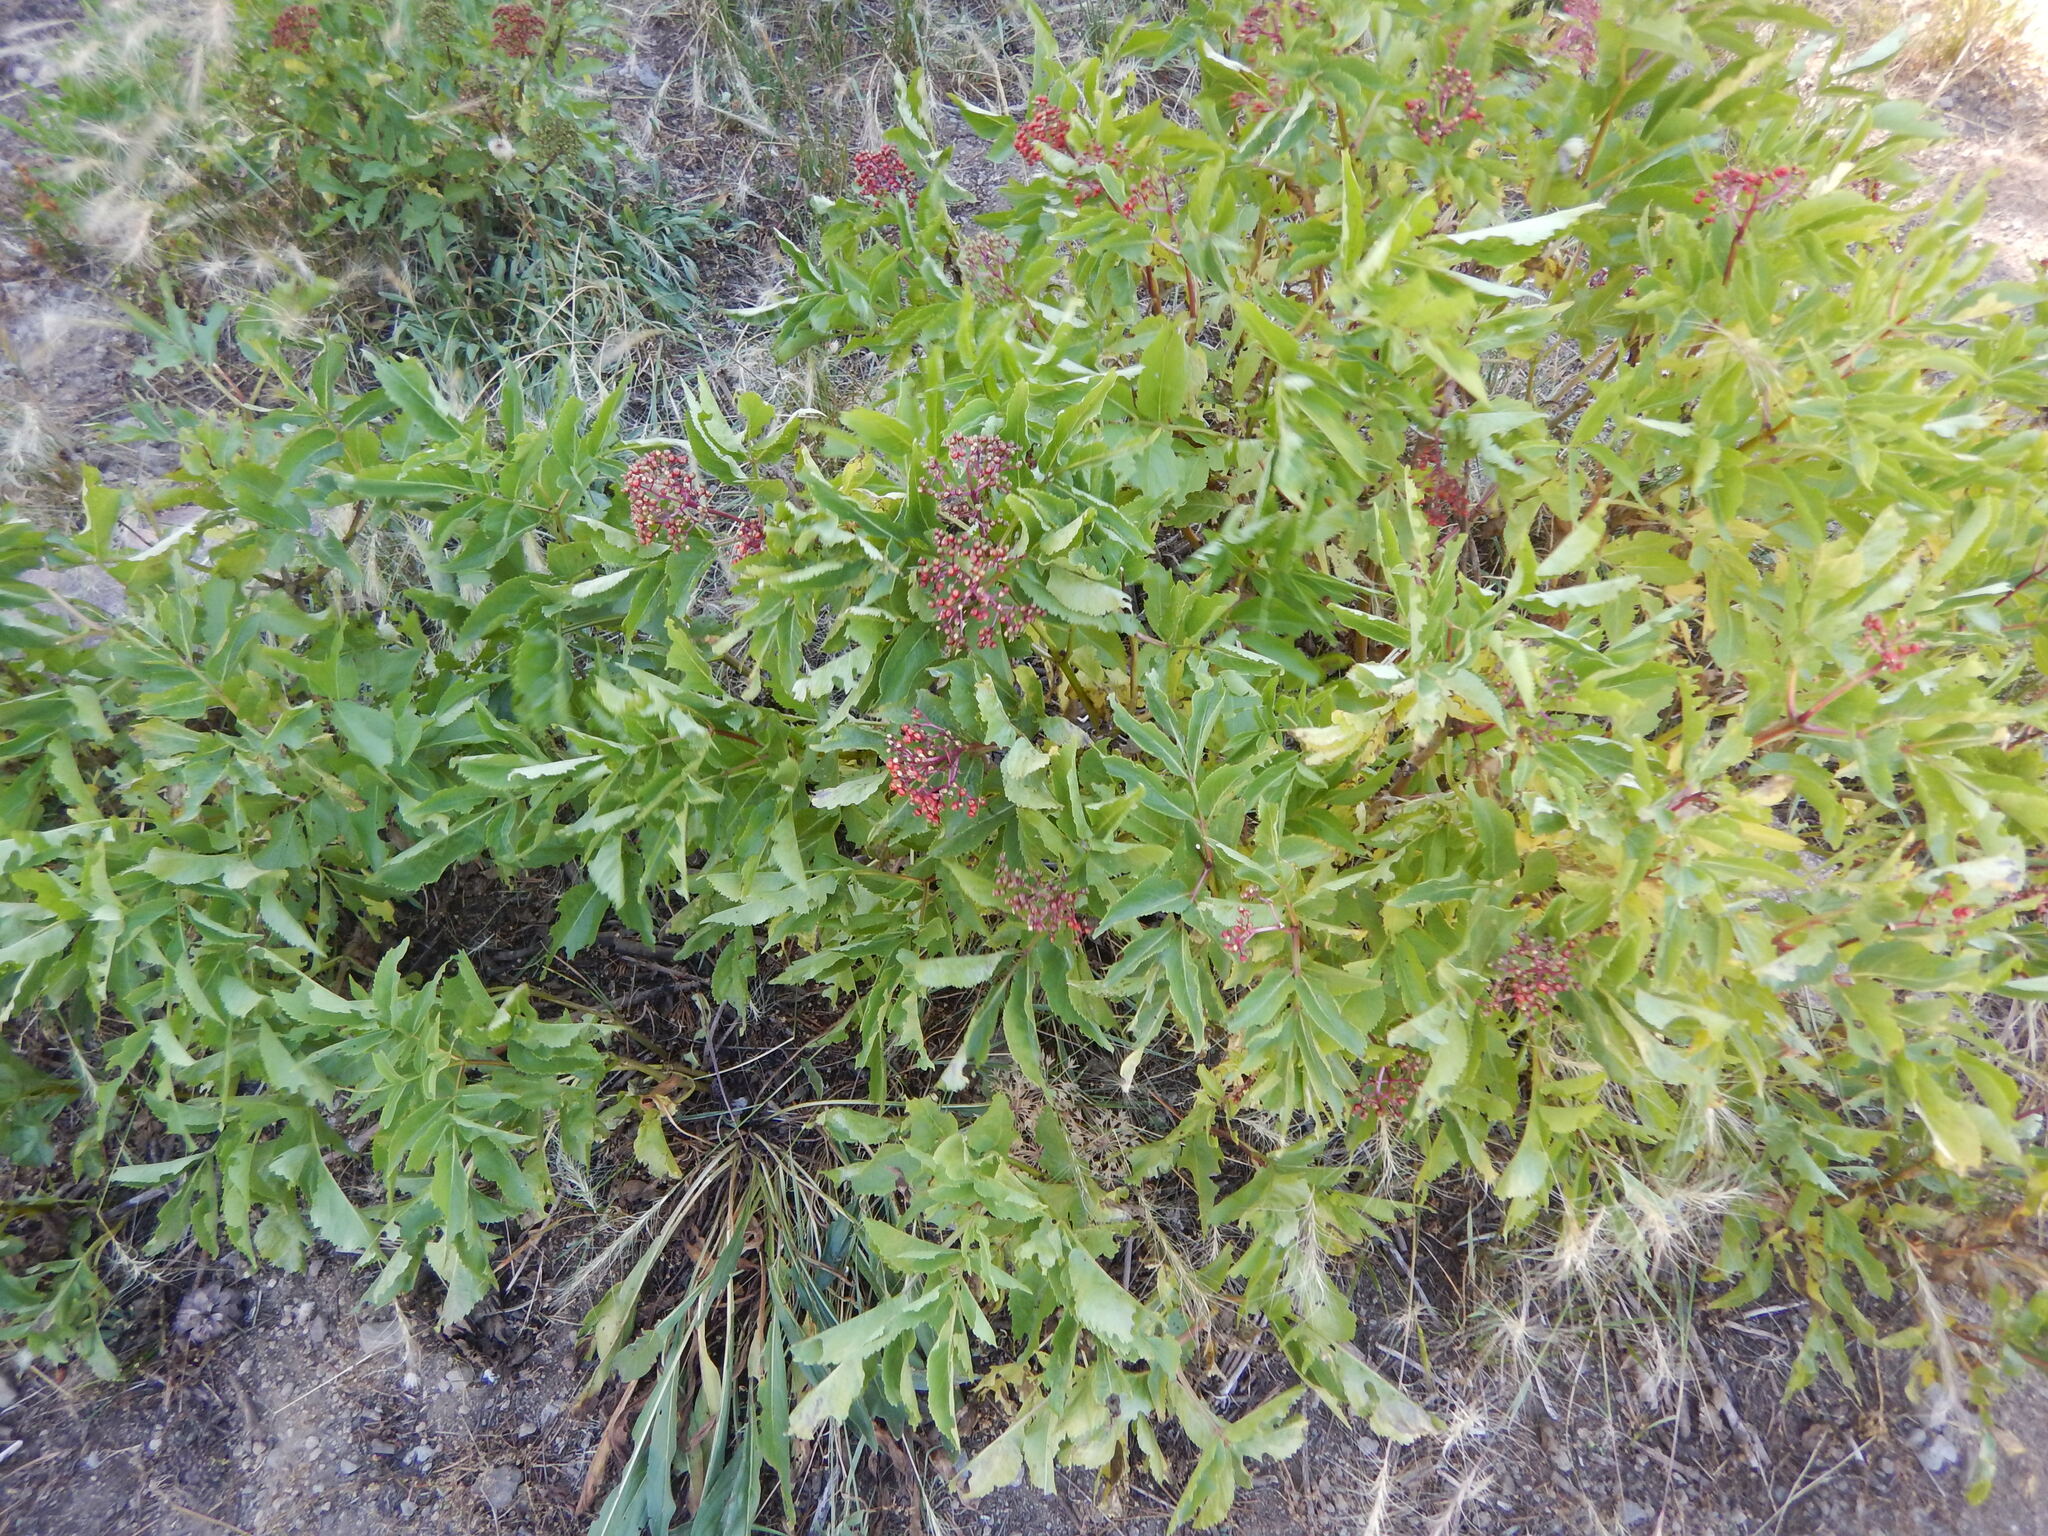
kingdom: Plantae
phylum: Tracheophyta
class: Magnoliopsida
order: Dipsacales
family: Viburnaceae
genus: Sambucus
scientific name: Sambucus racemosa
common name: Red-berried elder
